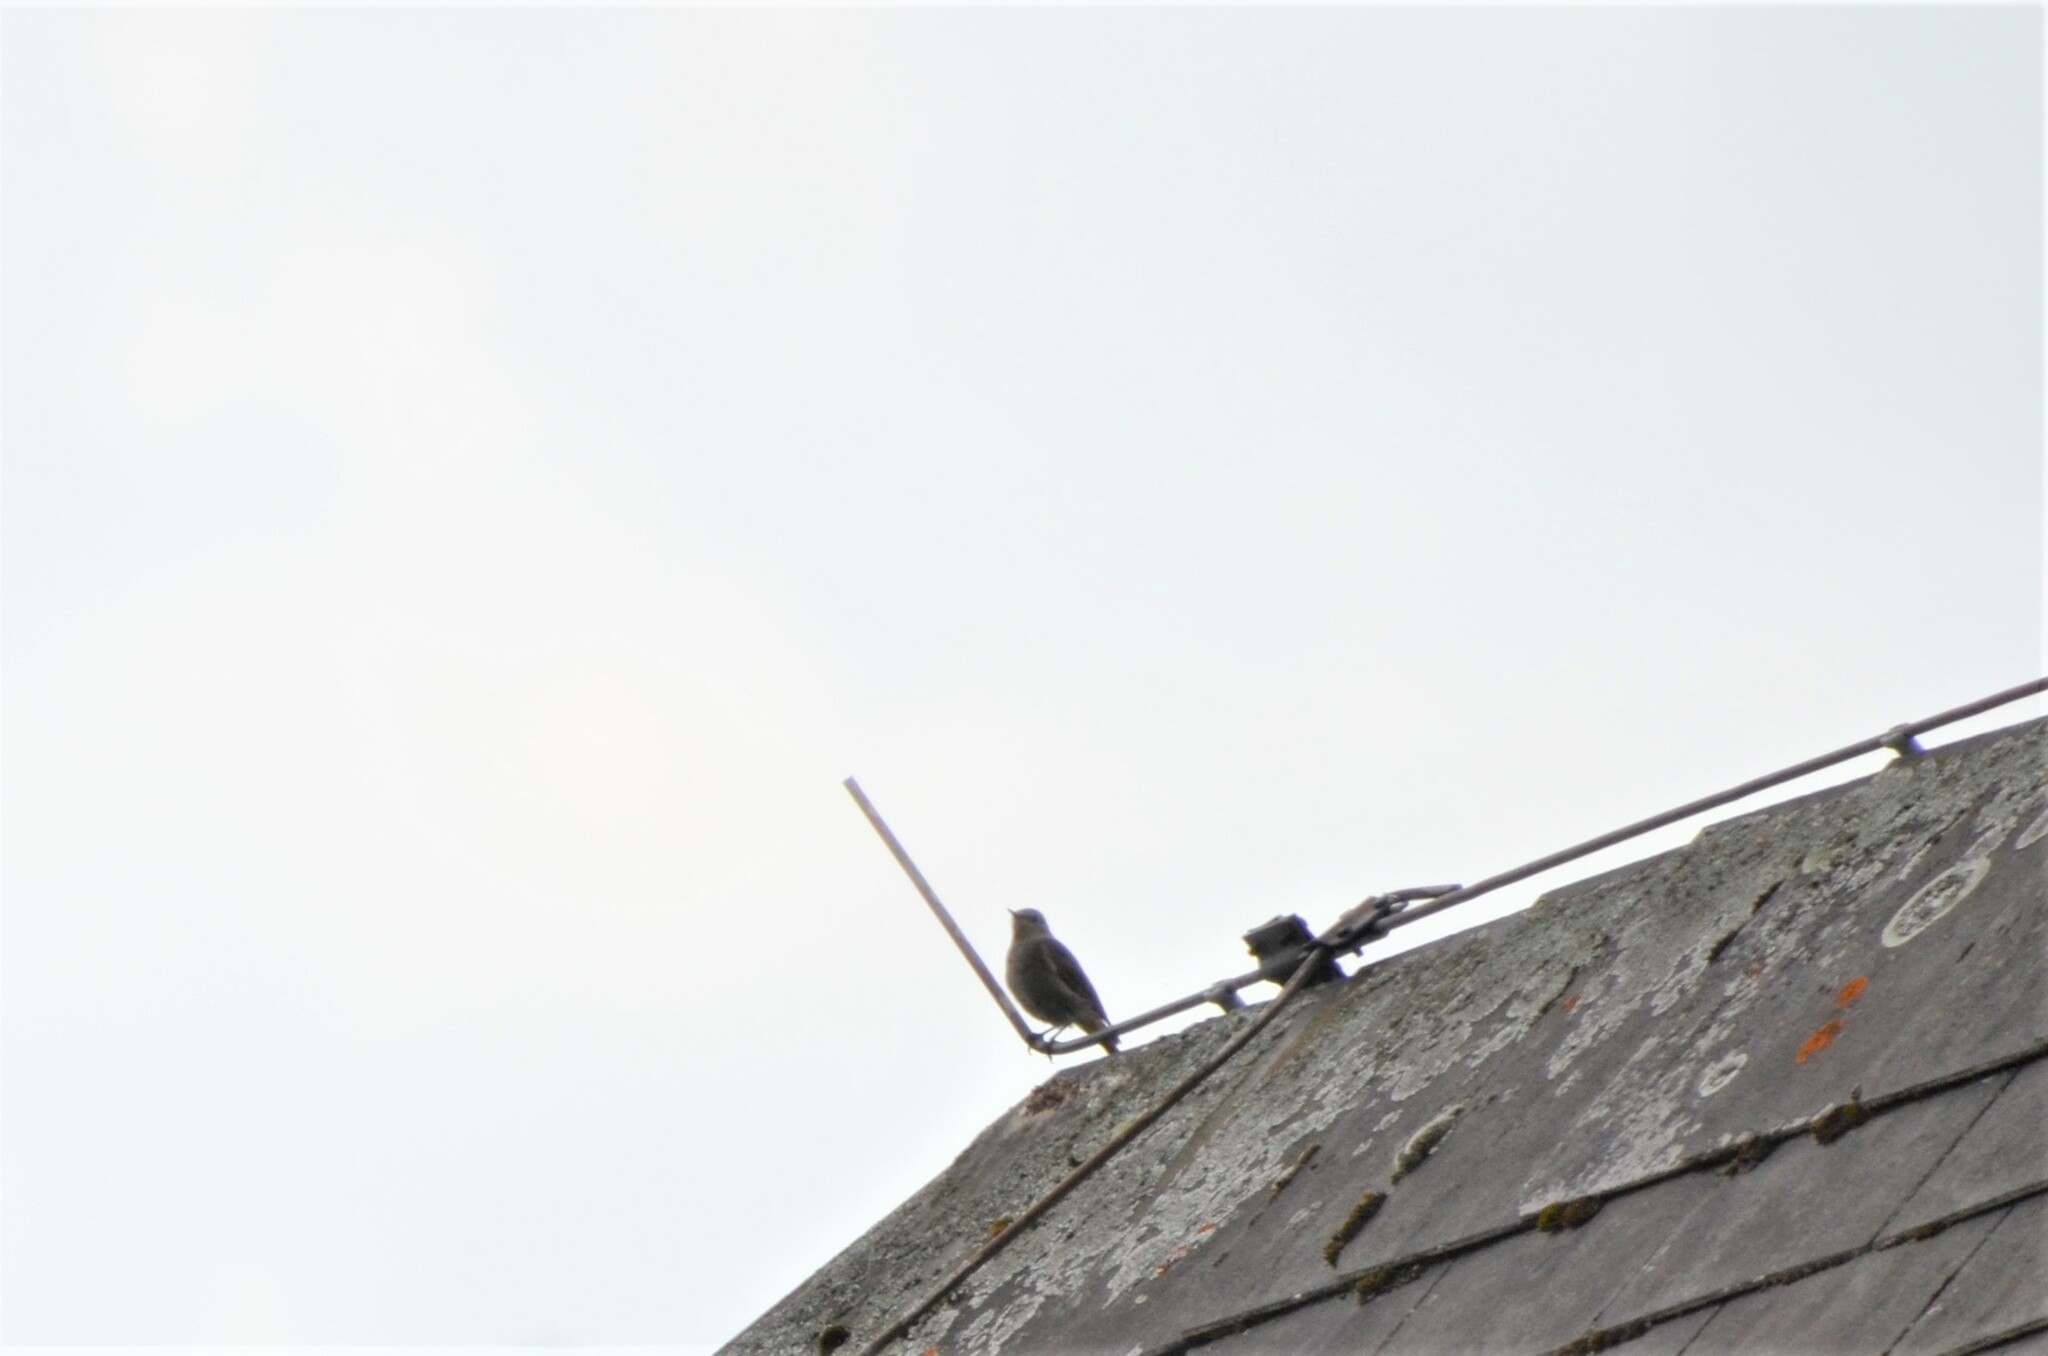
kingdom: Animalia
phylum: Chordata
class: Aves
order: Passeriformes
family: Muscicapidae
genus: Phoenicurus
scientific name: Phoenicurus ochruros
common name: Black redstart
